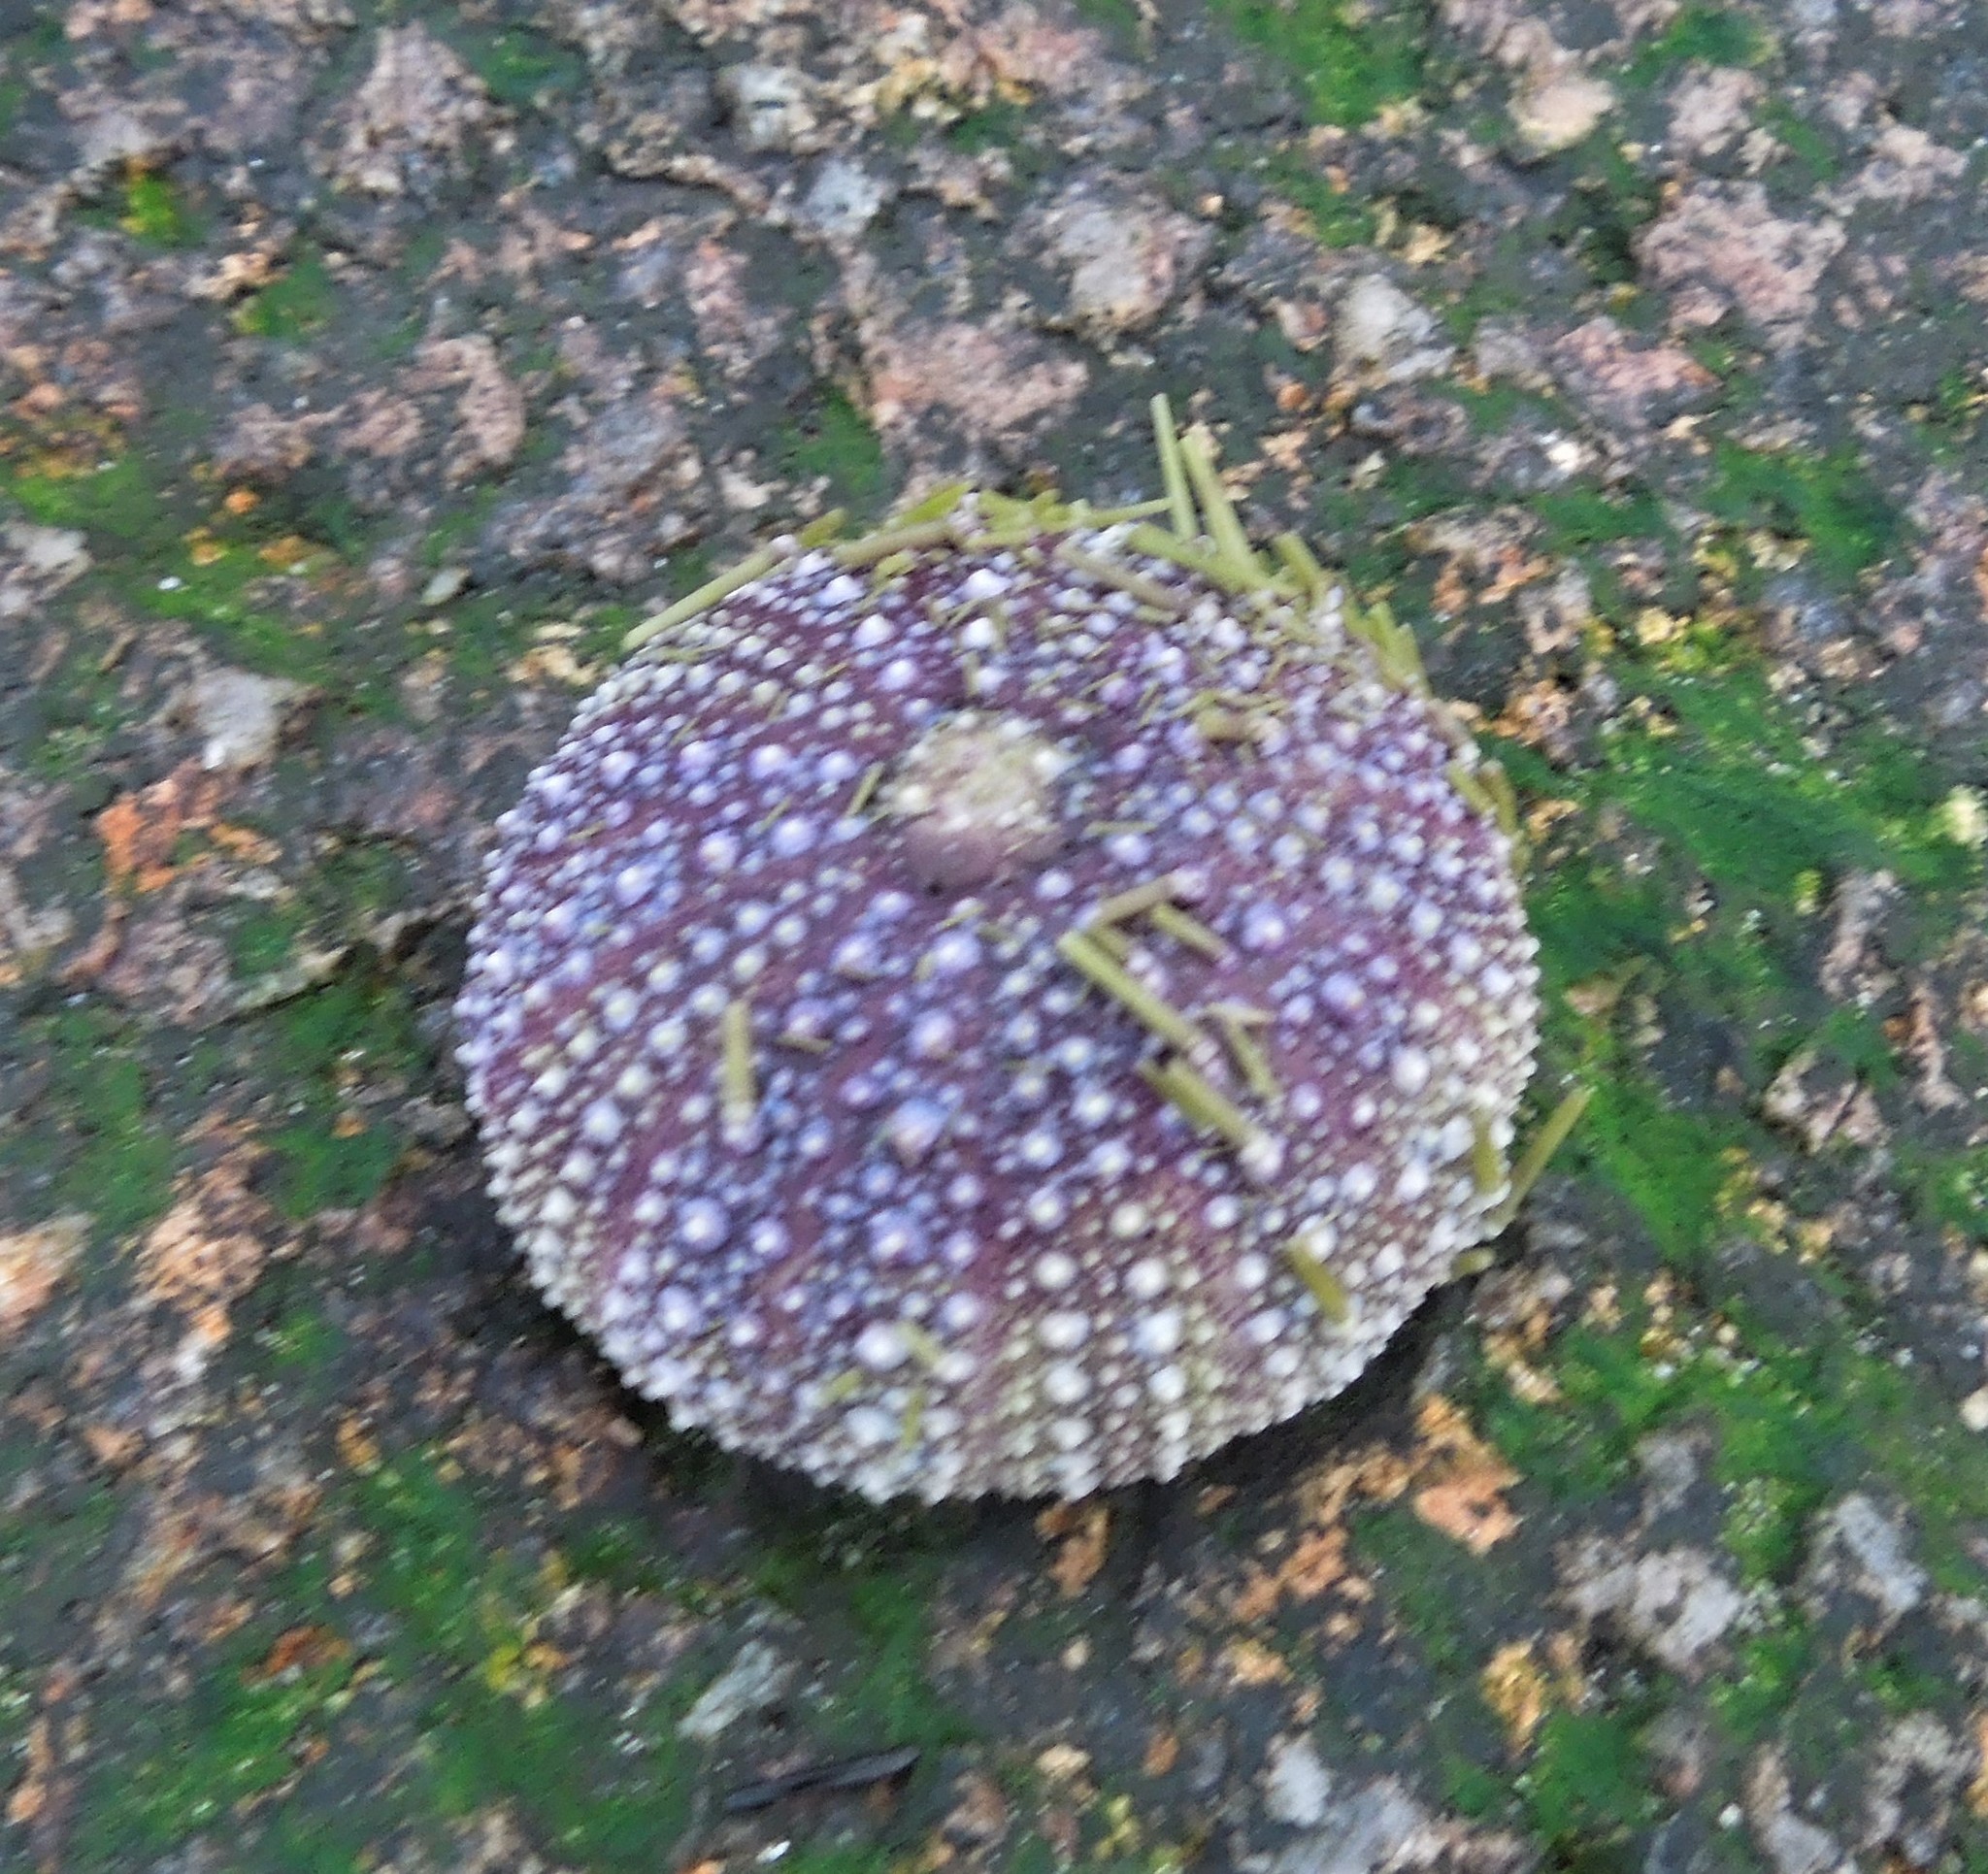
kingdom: Animalia
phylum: Echinodermata
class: Echinoidea
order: Camarodonta
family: Strongylocentrotidae
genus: Strongylocentrotus
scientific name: Strongylocentrotus droebachiensis
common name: Northern sea urchin
